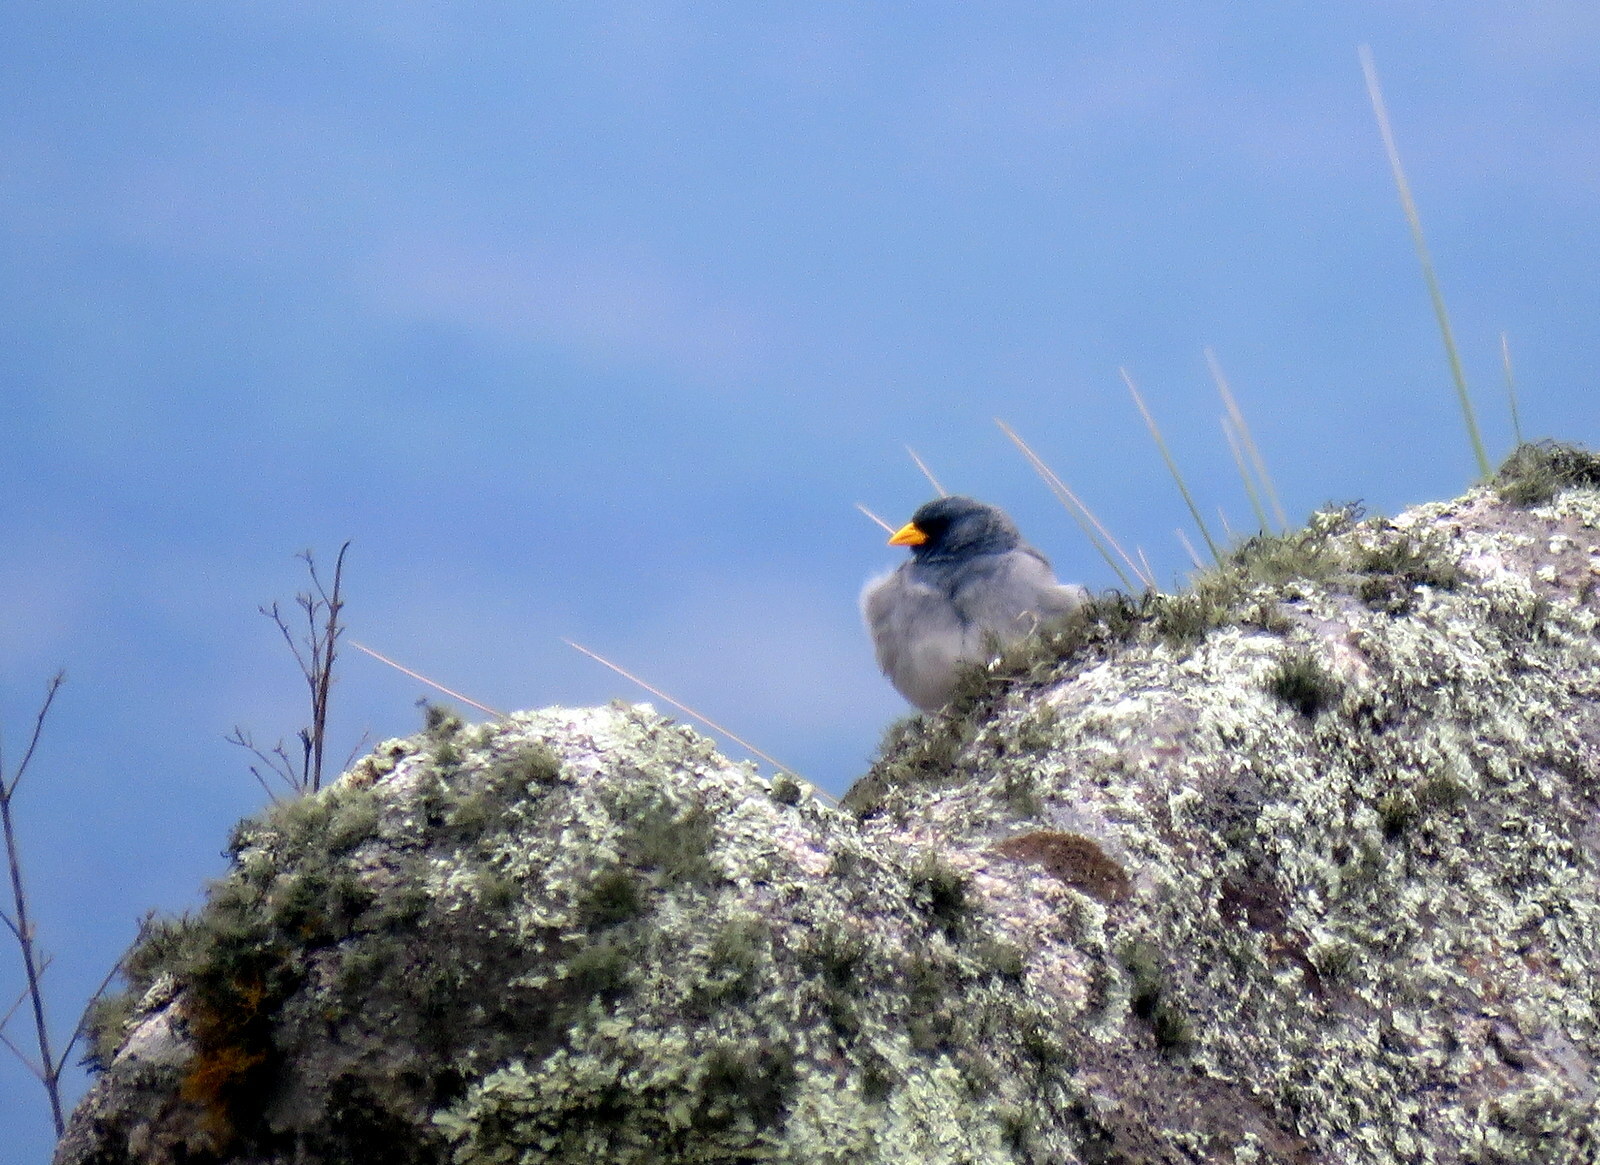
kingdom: Animalia
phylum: Chordata
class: Aves
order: Passeriformes
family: Thraupidae
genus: Porphyrospiza
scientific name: Porphyrospiza alaudina
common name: Band-tailed sierra finch
